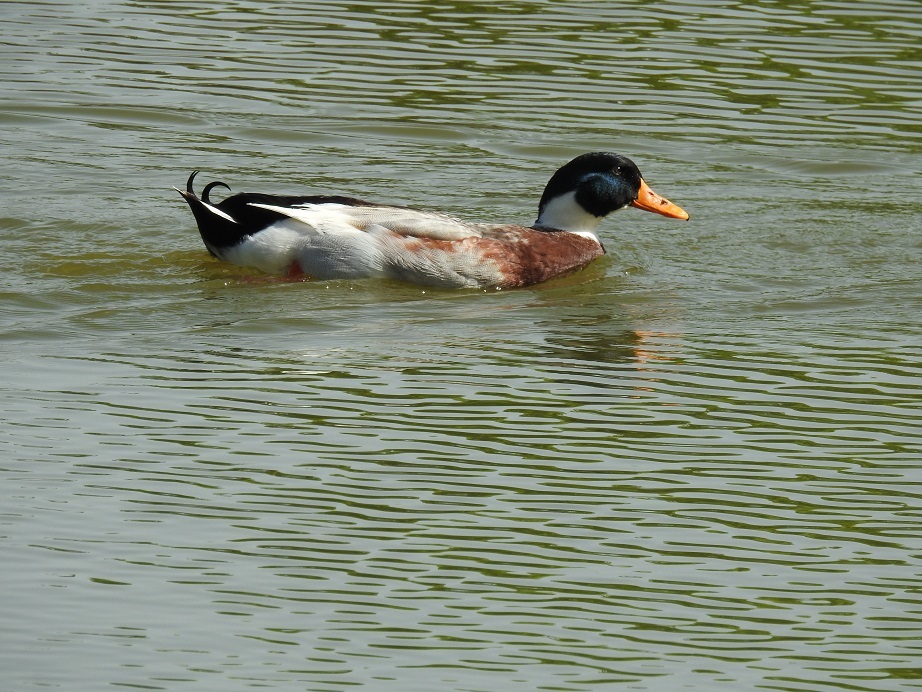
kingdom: Animalia
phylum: Chordata
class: Aves
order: Anseriformes
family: Anatidae
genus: Anas
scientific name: Anas platyrhynchos
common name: Mallard
